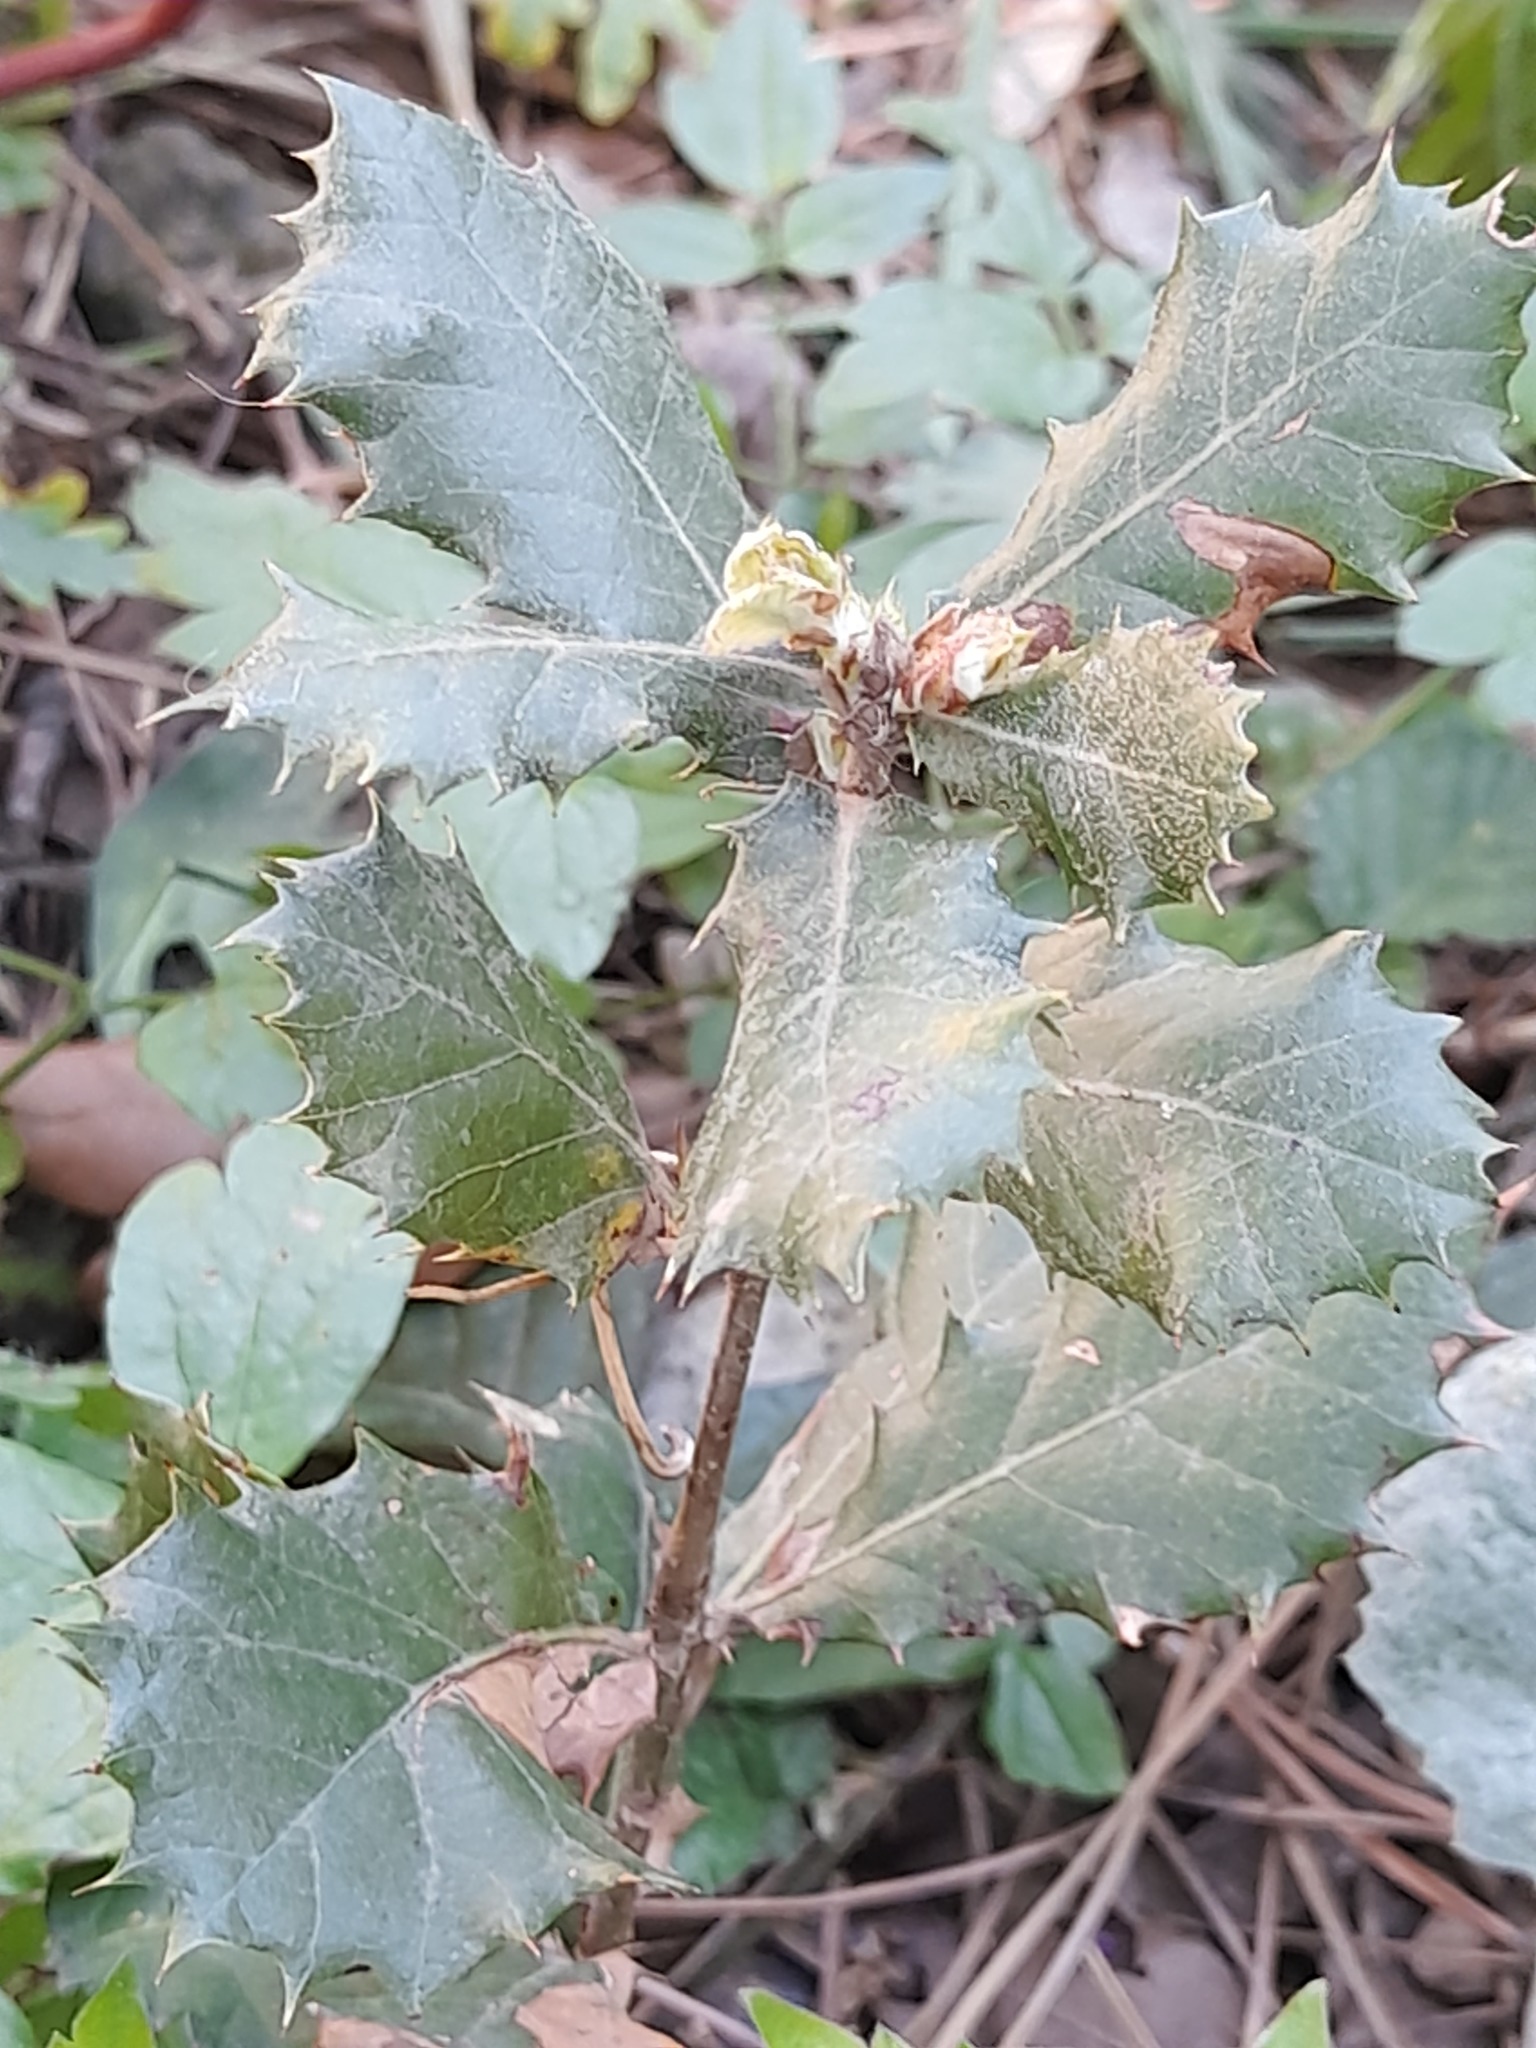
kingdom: Plantae
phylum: Tracheophyta
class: Magnoliopsida
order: Fagales
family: Fagaceae
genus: Quercus
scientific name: Quercus ilex
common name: Evergreen oak
